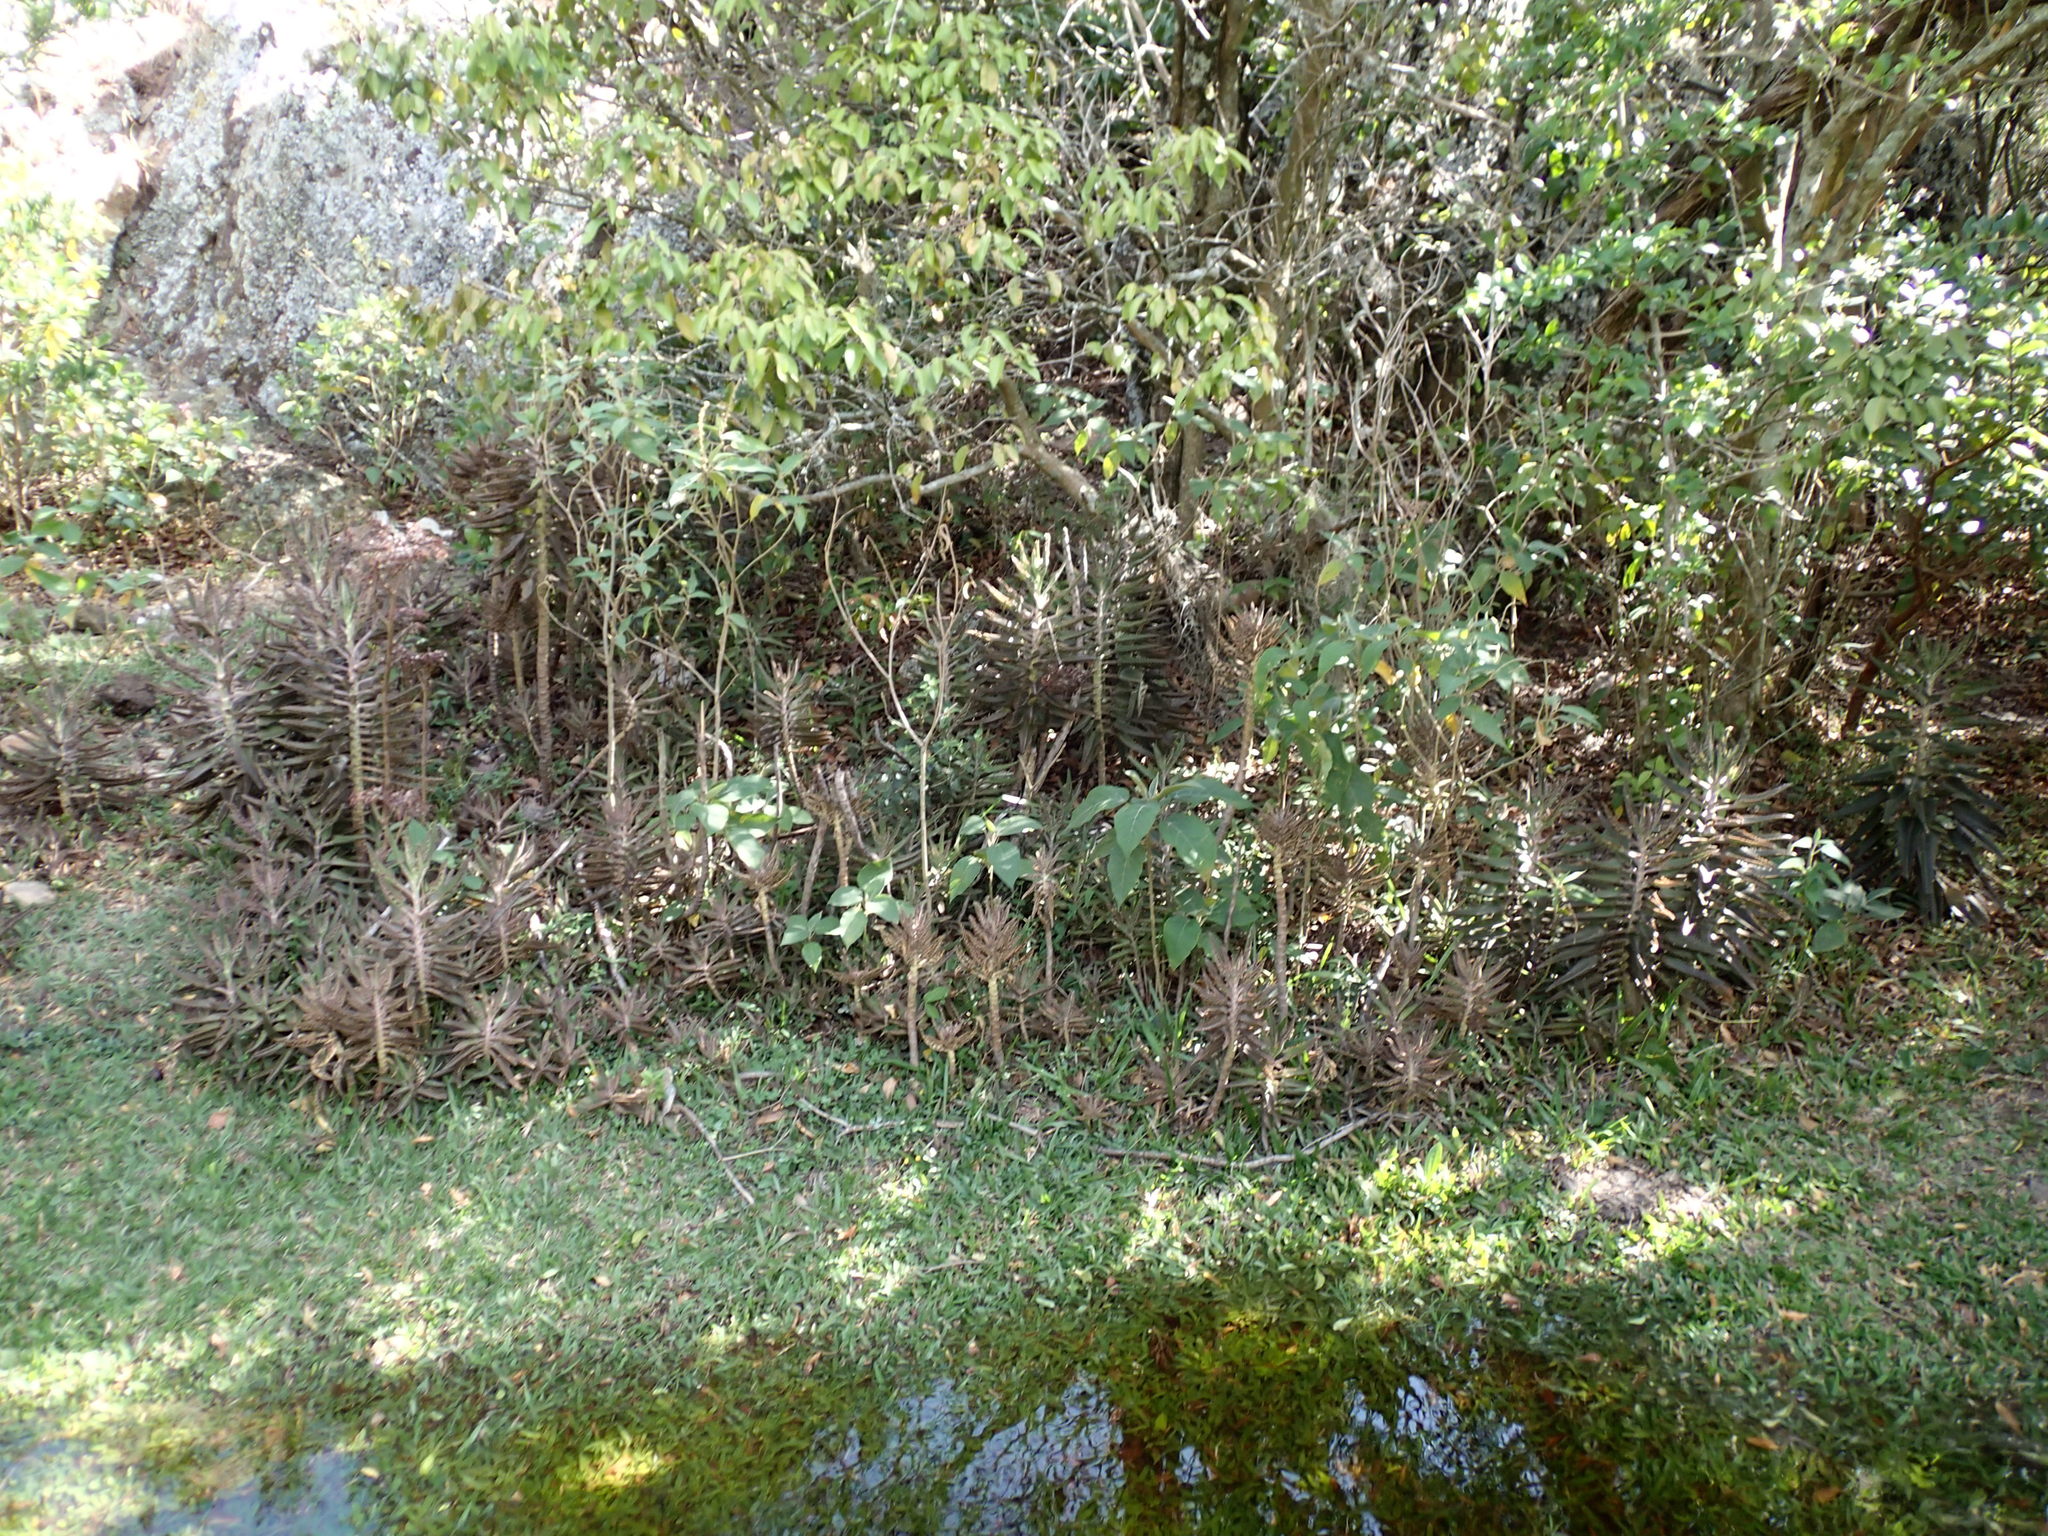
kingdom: Plantae
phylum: Tracheophyta
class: Magnoliopsida
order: Saxifragales
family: Crassulaceae
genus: Kalanchoe
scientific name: Kalanchoe houghtonii
